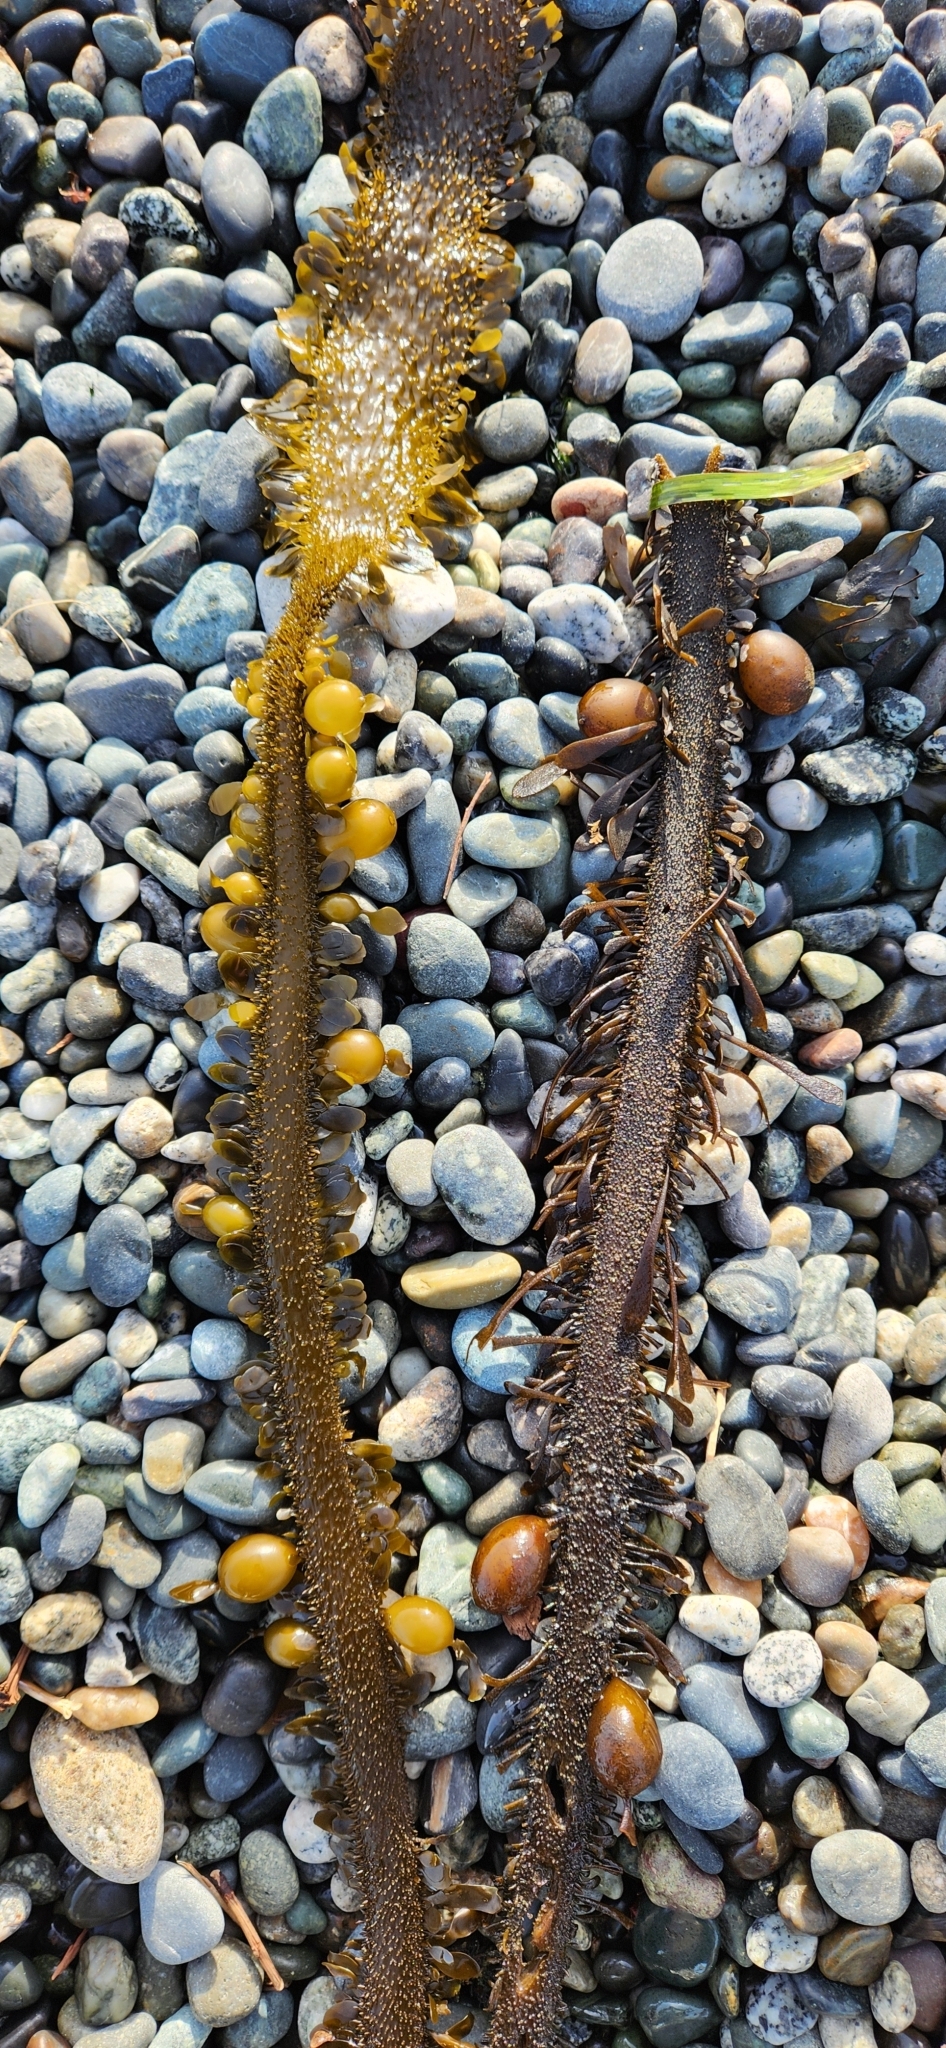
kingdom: Chromista
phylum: Ochrophyta
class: Phaeophyceae
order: Laminariales
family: Lessoniaceae
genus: Egregia
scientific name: Egregia menziesii
